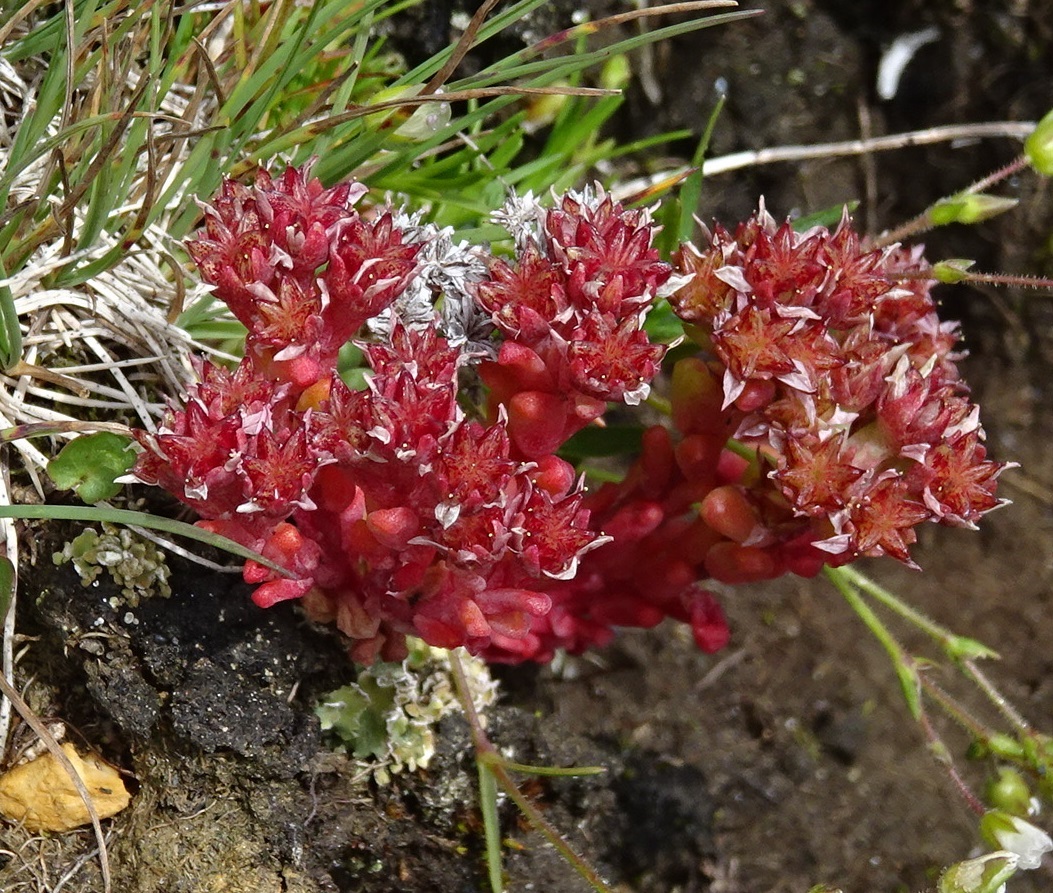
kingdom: Plantae
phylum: Tracheophyta
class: Magnoliopsida
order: Saxifragales
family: Crassulaceae
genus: Sedum
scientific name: Sedum atratum
